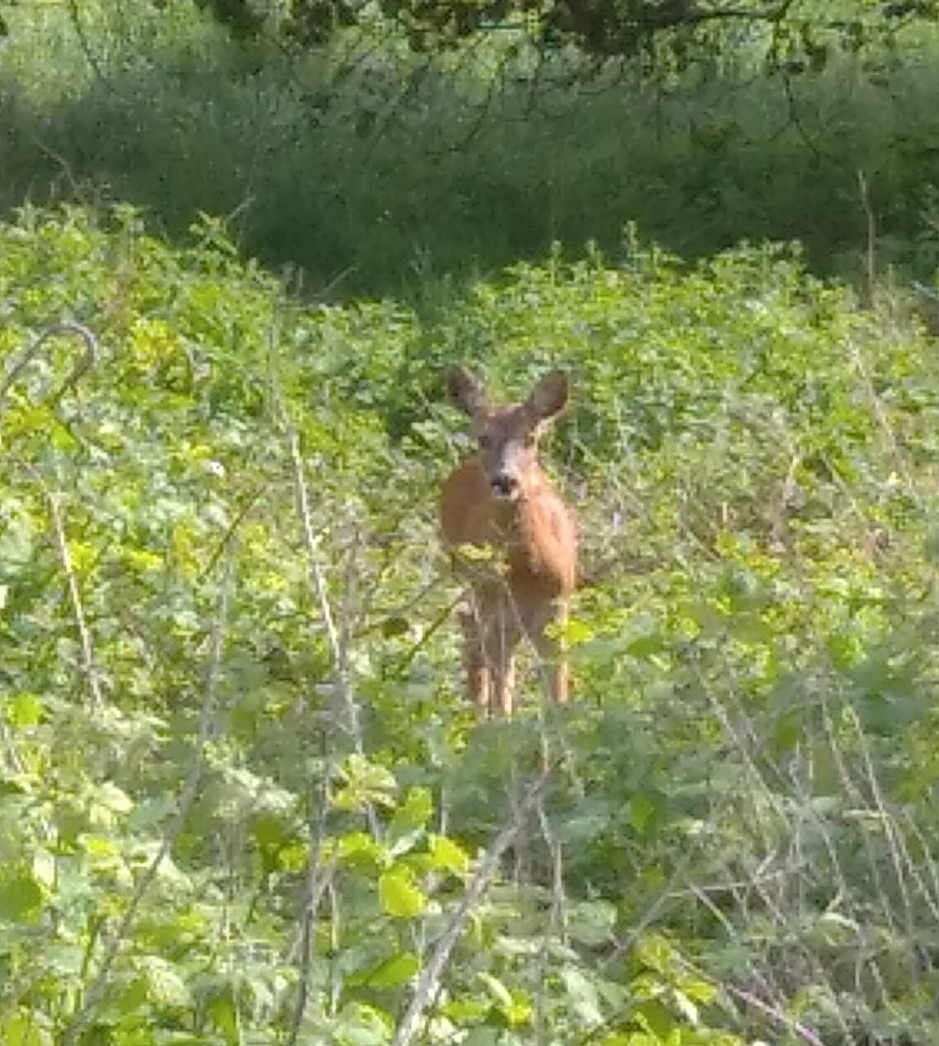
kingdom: Animalia
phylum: Chordata
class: Mammalia
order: Artiodactyla
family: Cervidae
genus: Capreolus
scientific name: Capreolus capreolus
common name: Western roe deer
